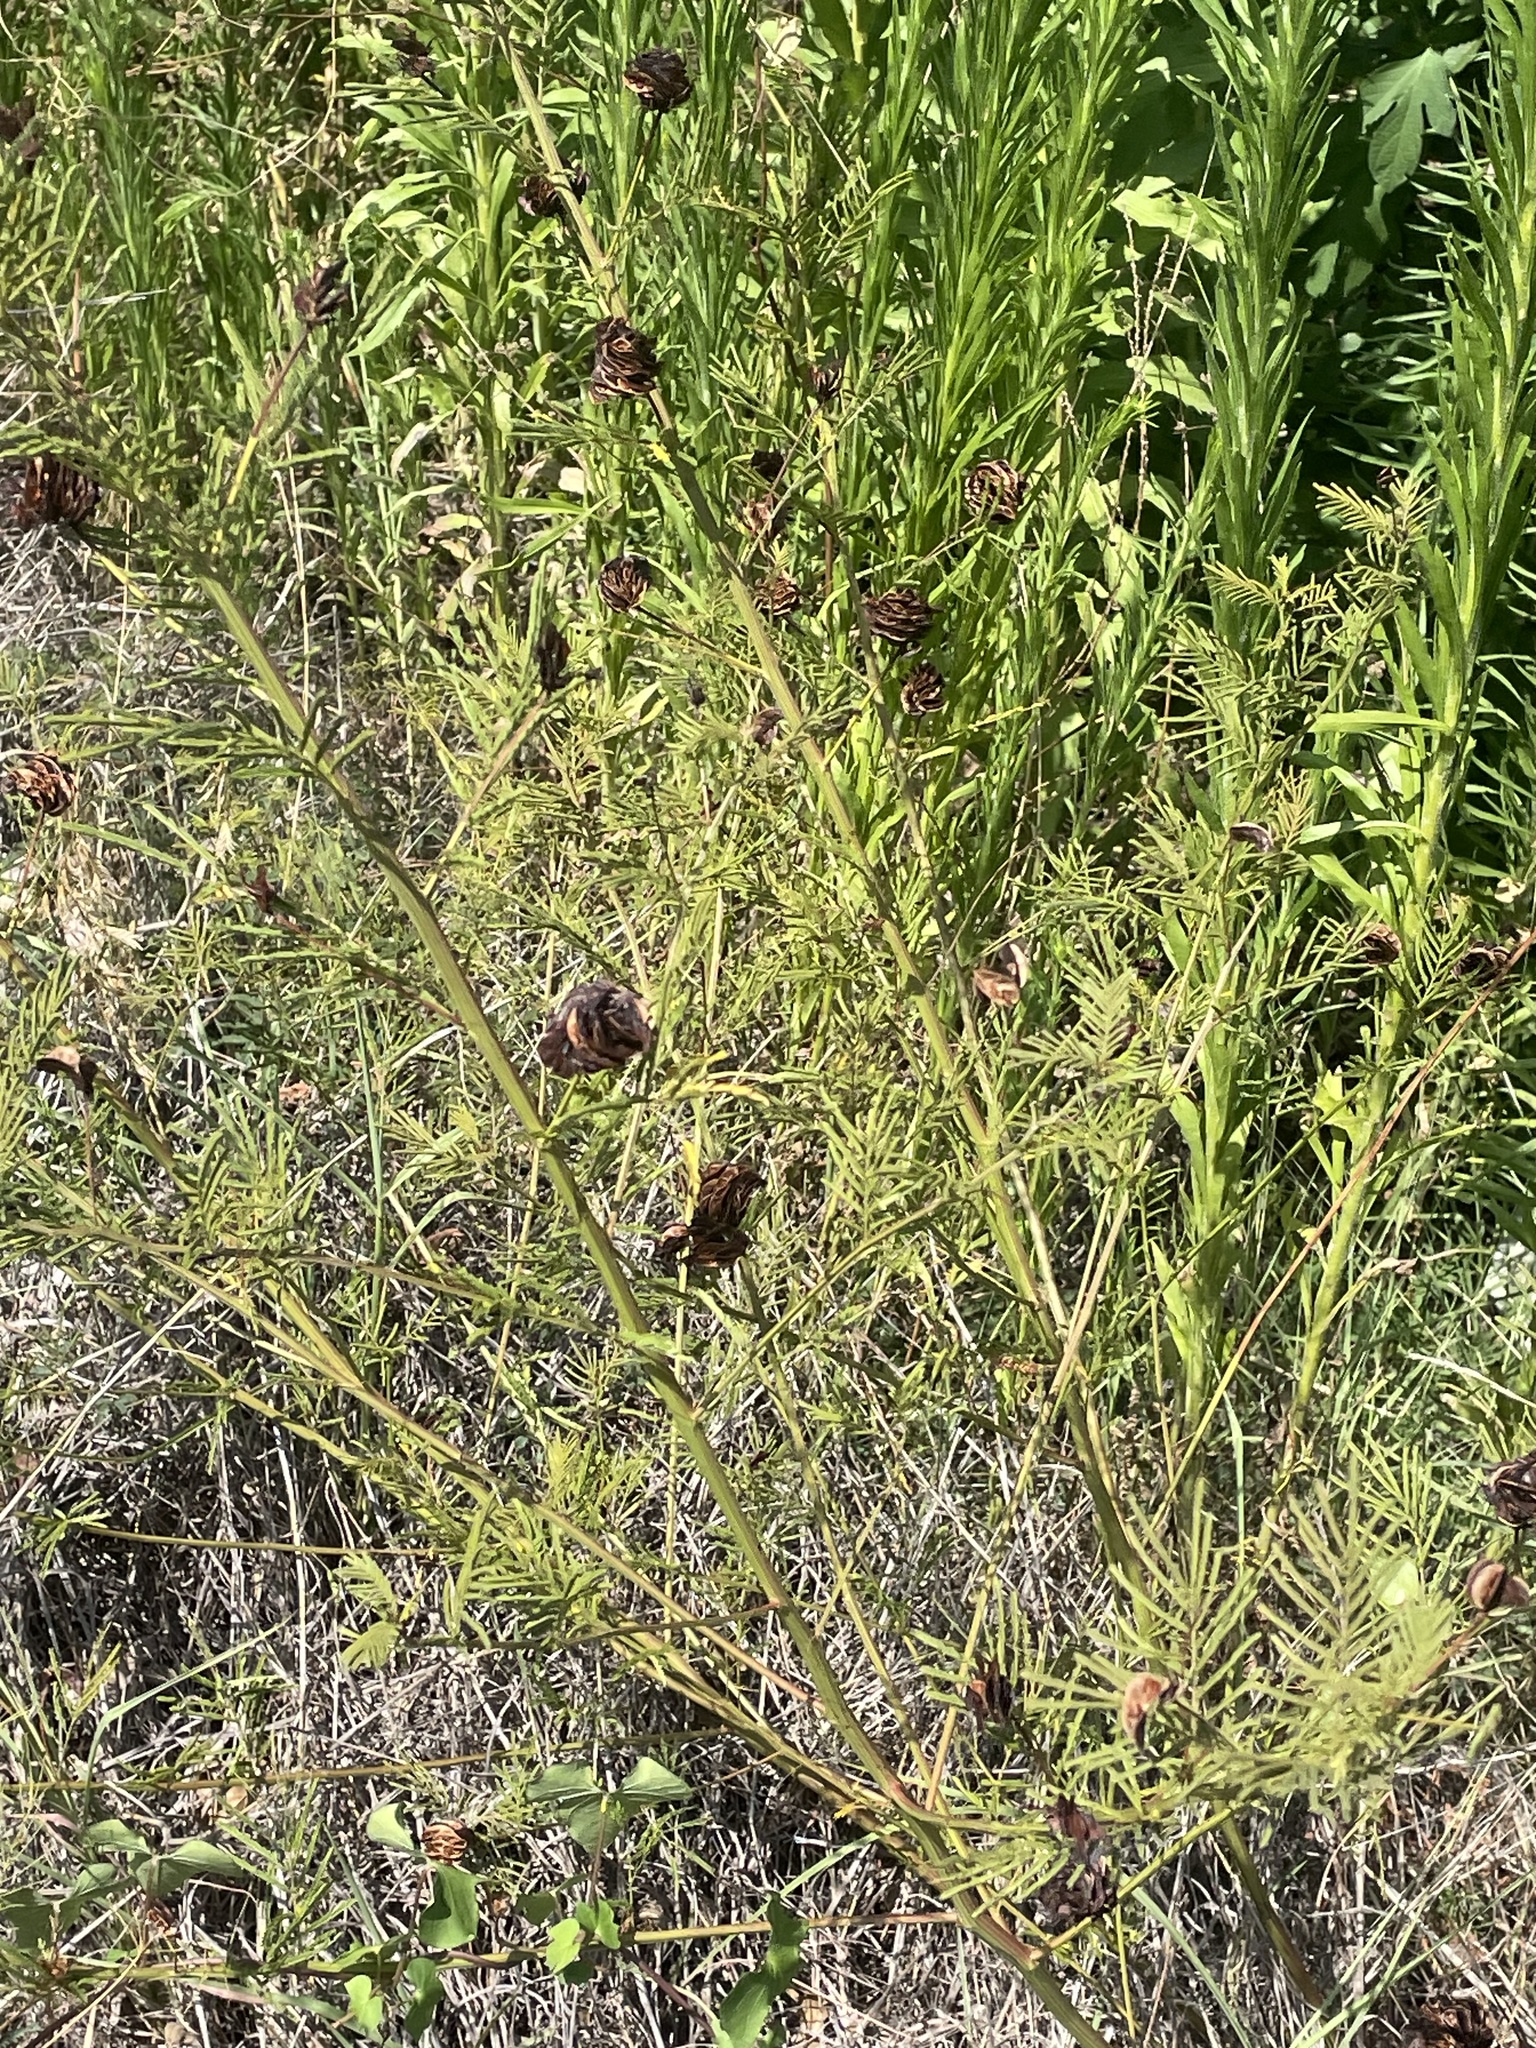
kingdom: Plantae
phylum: Tracheophyta
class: Magnoliopsida
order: Fabales
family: Fabaceae
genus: Desmanthus
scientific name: Desmanthus illinoensis
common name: Illinois bundle-flower
